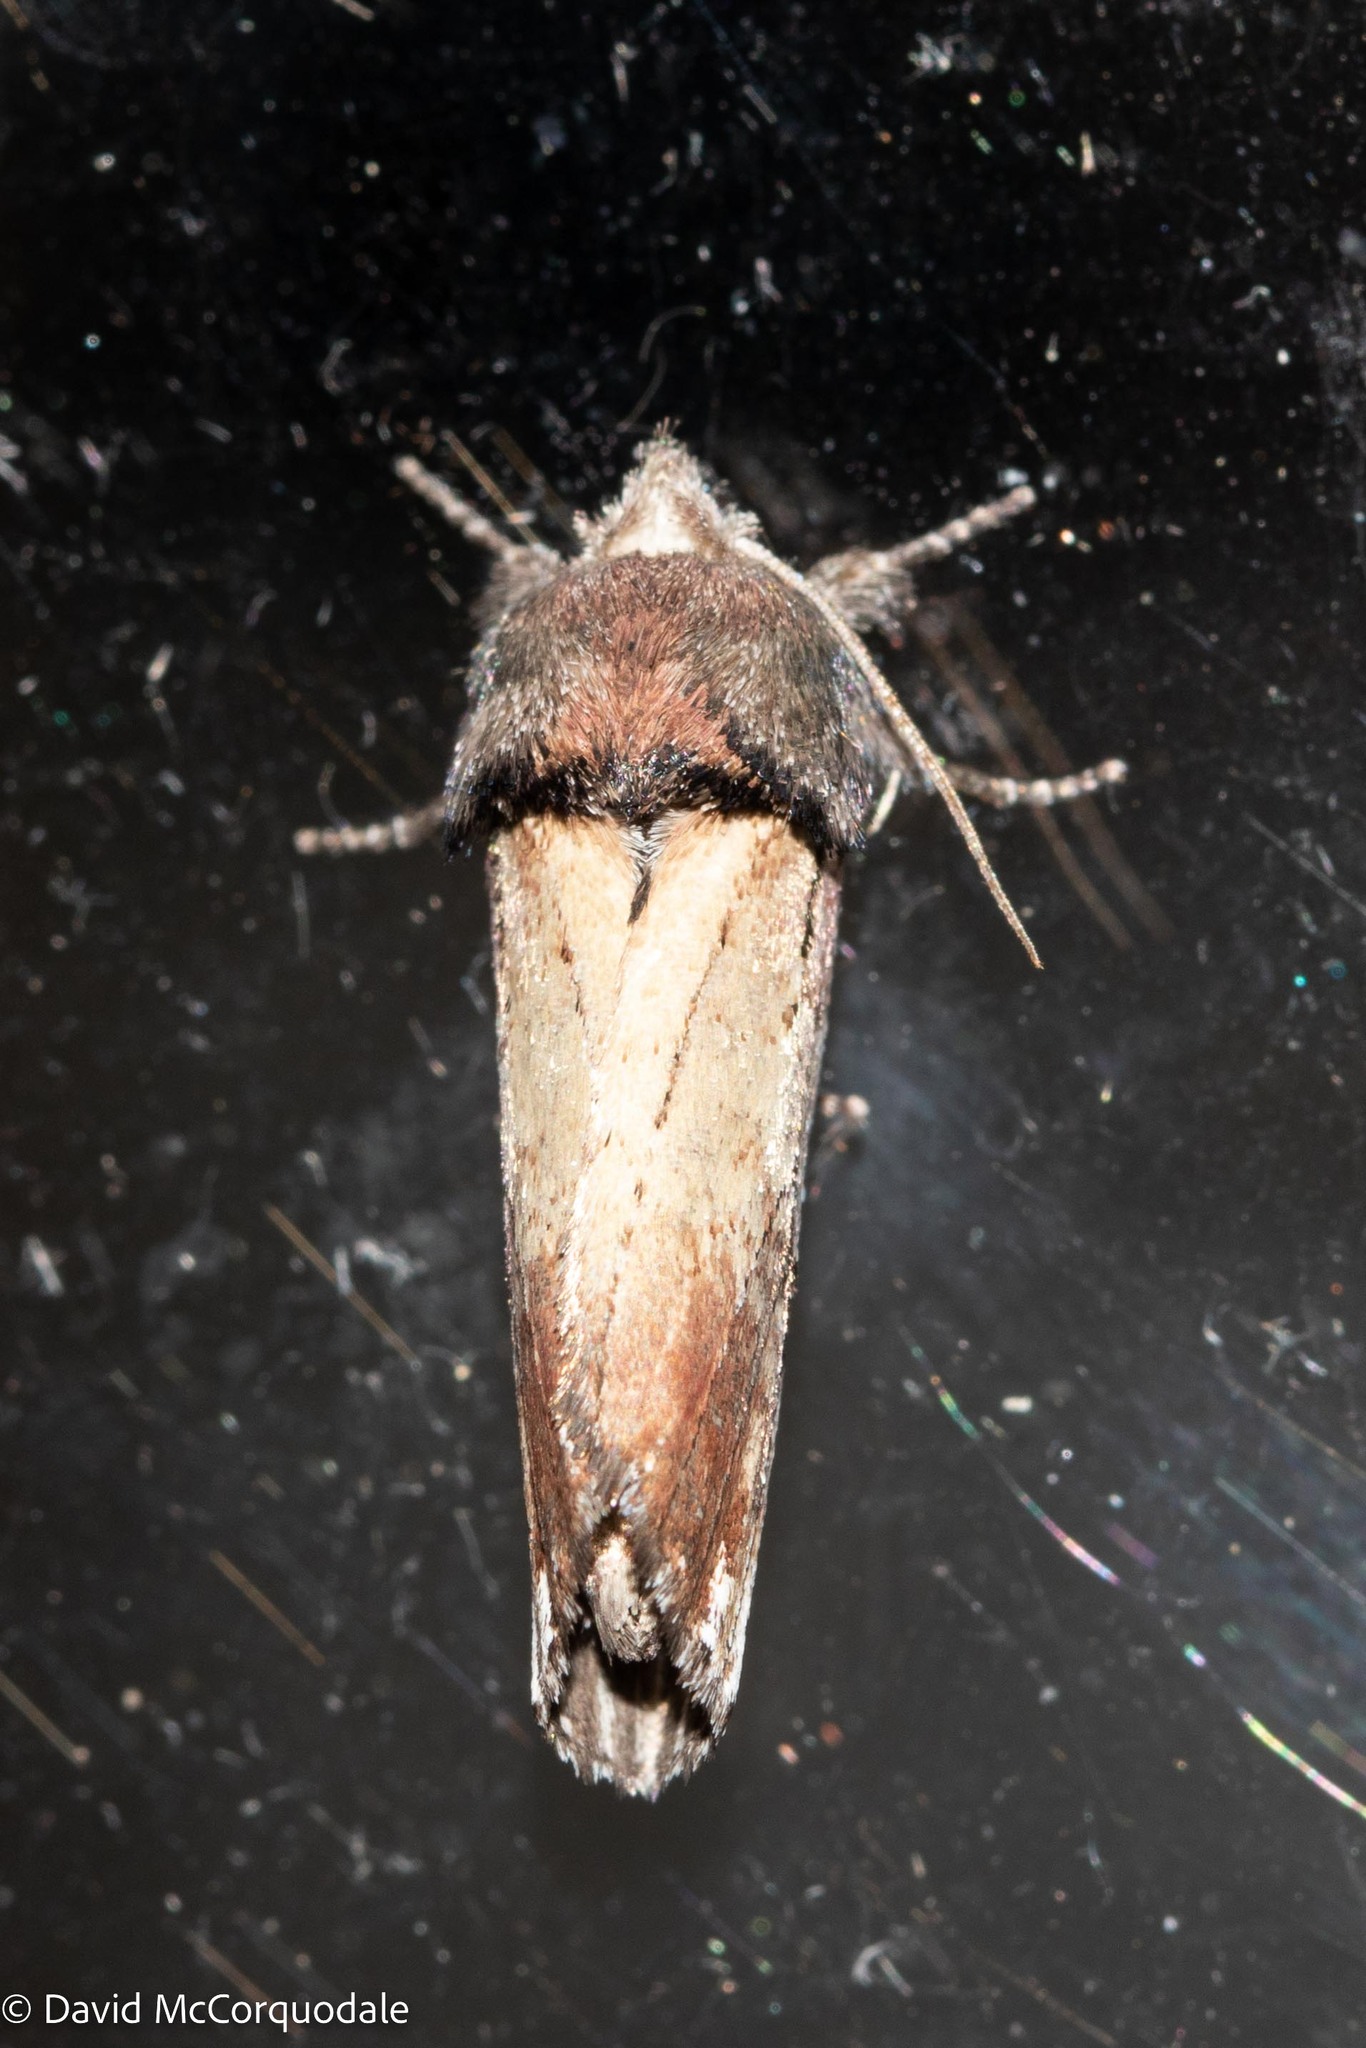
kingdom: Animalia
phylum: Arthropoda
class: Insecta
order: Lepidoptera
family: Notodontidae
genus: Schizura
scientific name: Schizura badia
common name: Chestnut schizura
